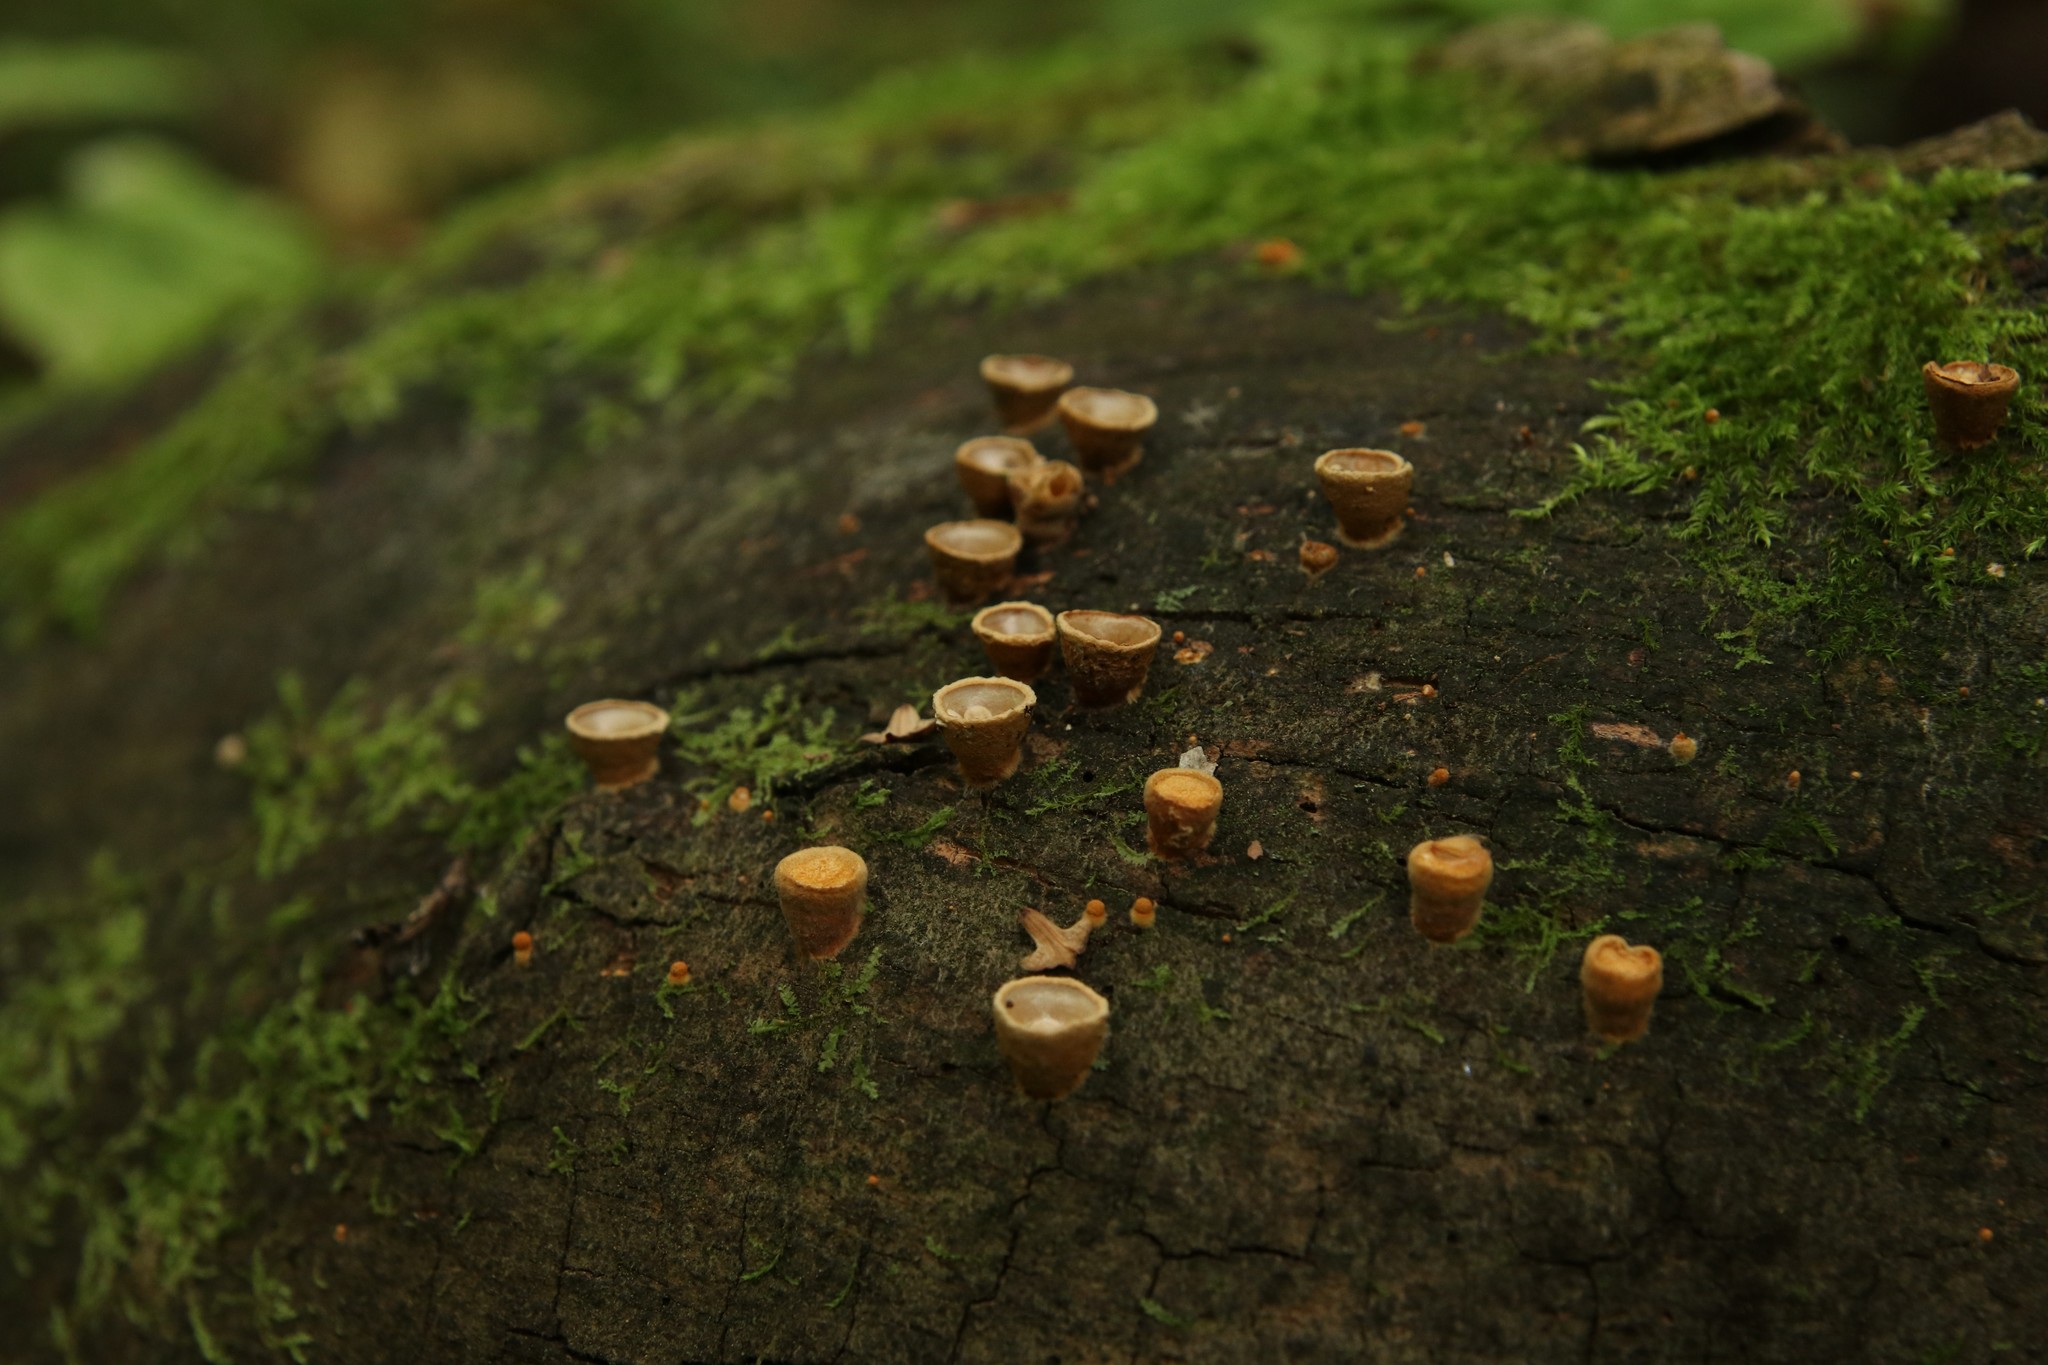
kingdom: Fungi
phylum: Basidiomycota
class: Agaricomycetes
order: Agaricales
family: Nidulariaceae
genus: Crucibulum
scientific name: Crucibulum laeve
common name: Common bird's nest
